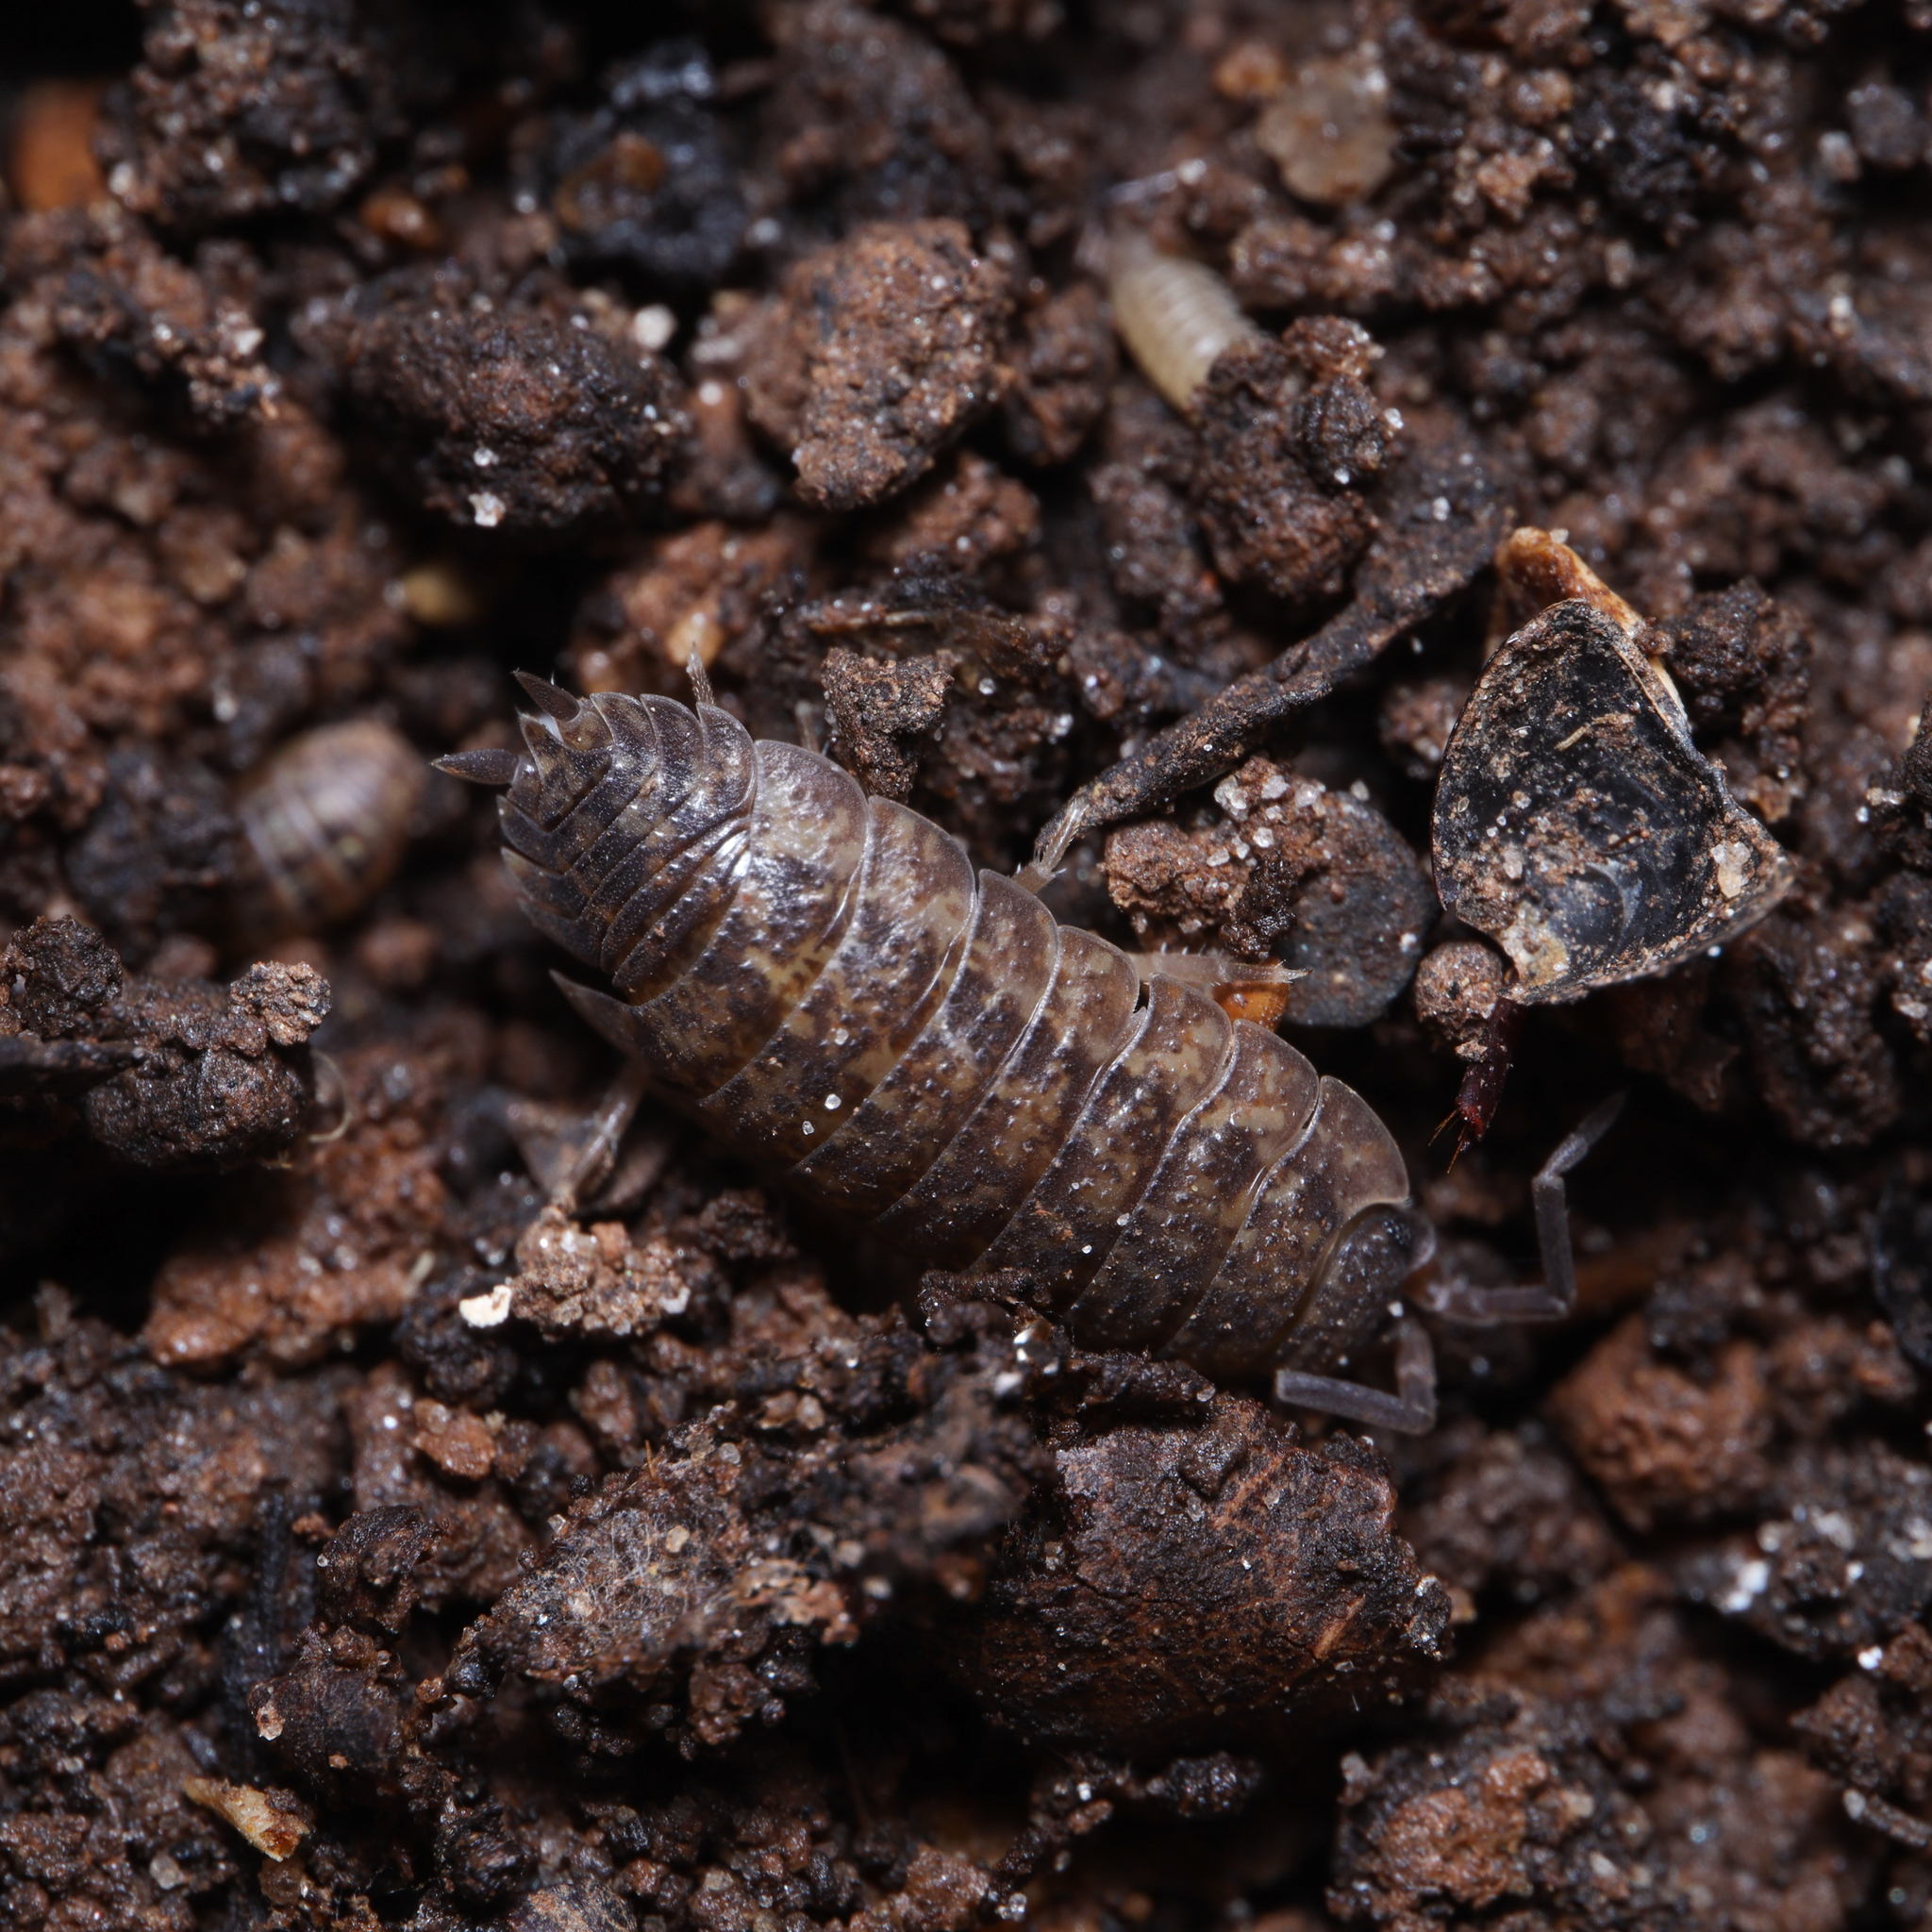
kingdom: Animalia
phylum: Arthropoda
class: Malacostraca
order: Isopoda
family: Porcellionidae
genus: Porcellio
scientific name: Porcellio scaber
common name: Common rough woodlouse
